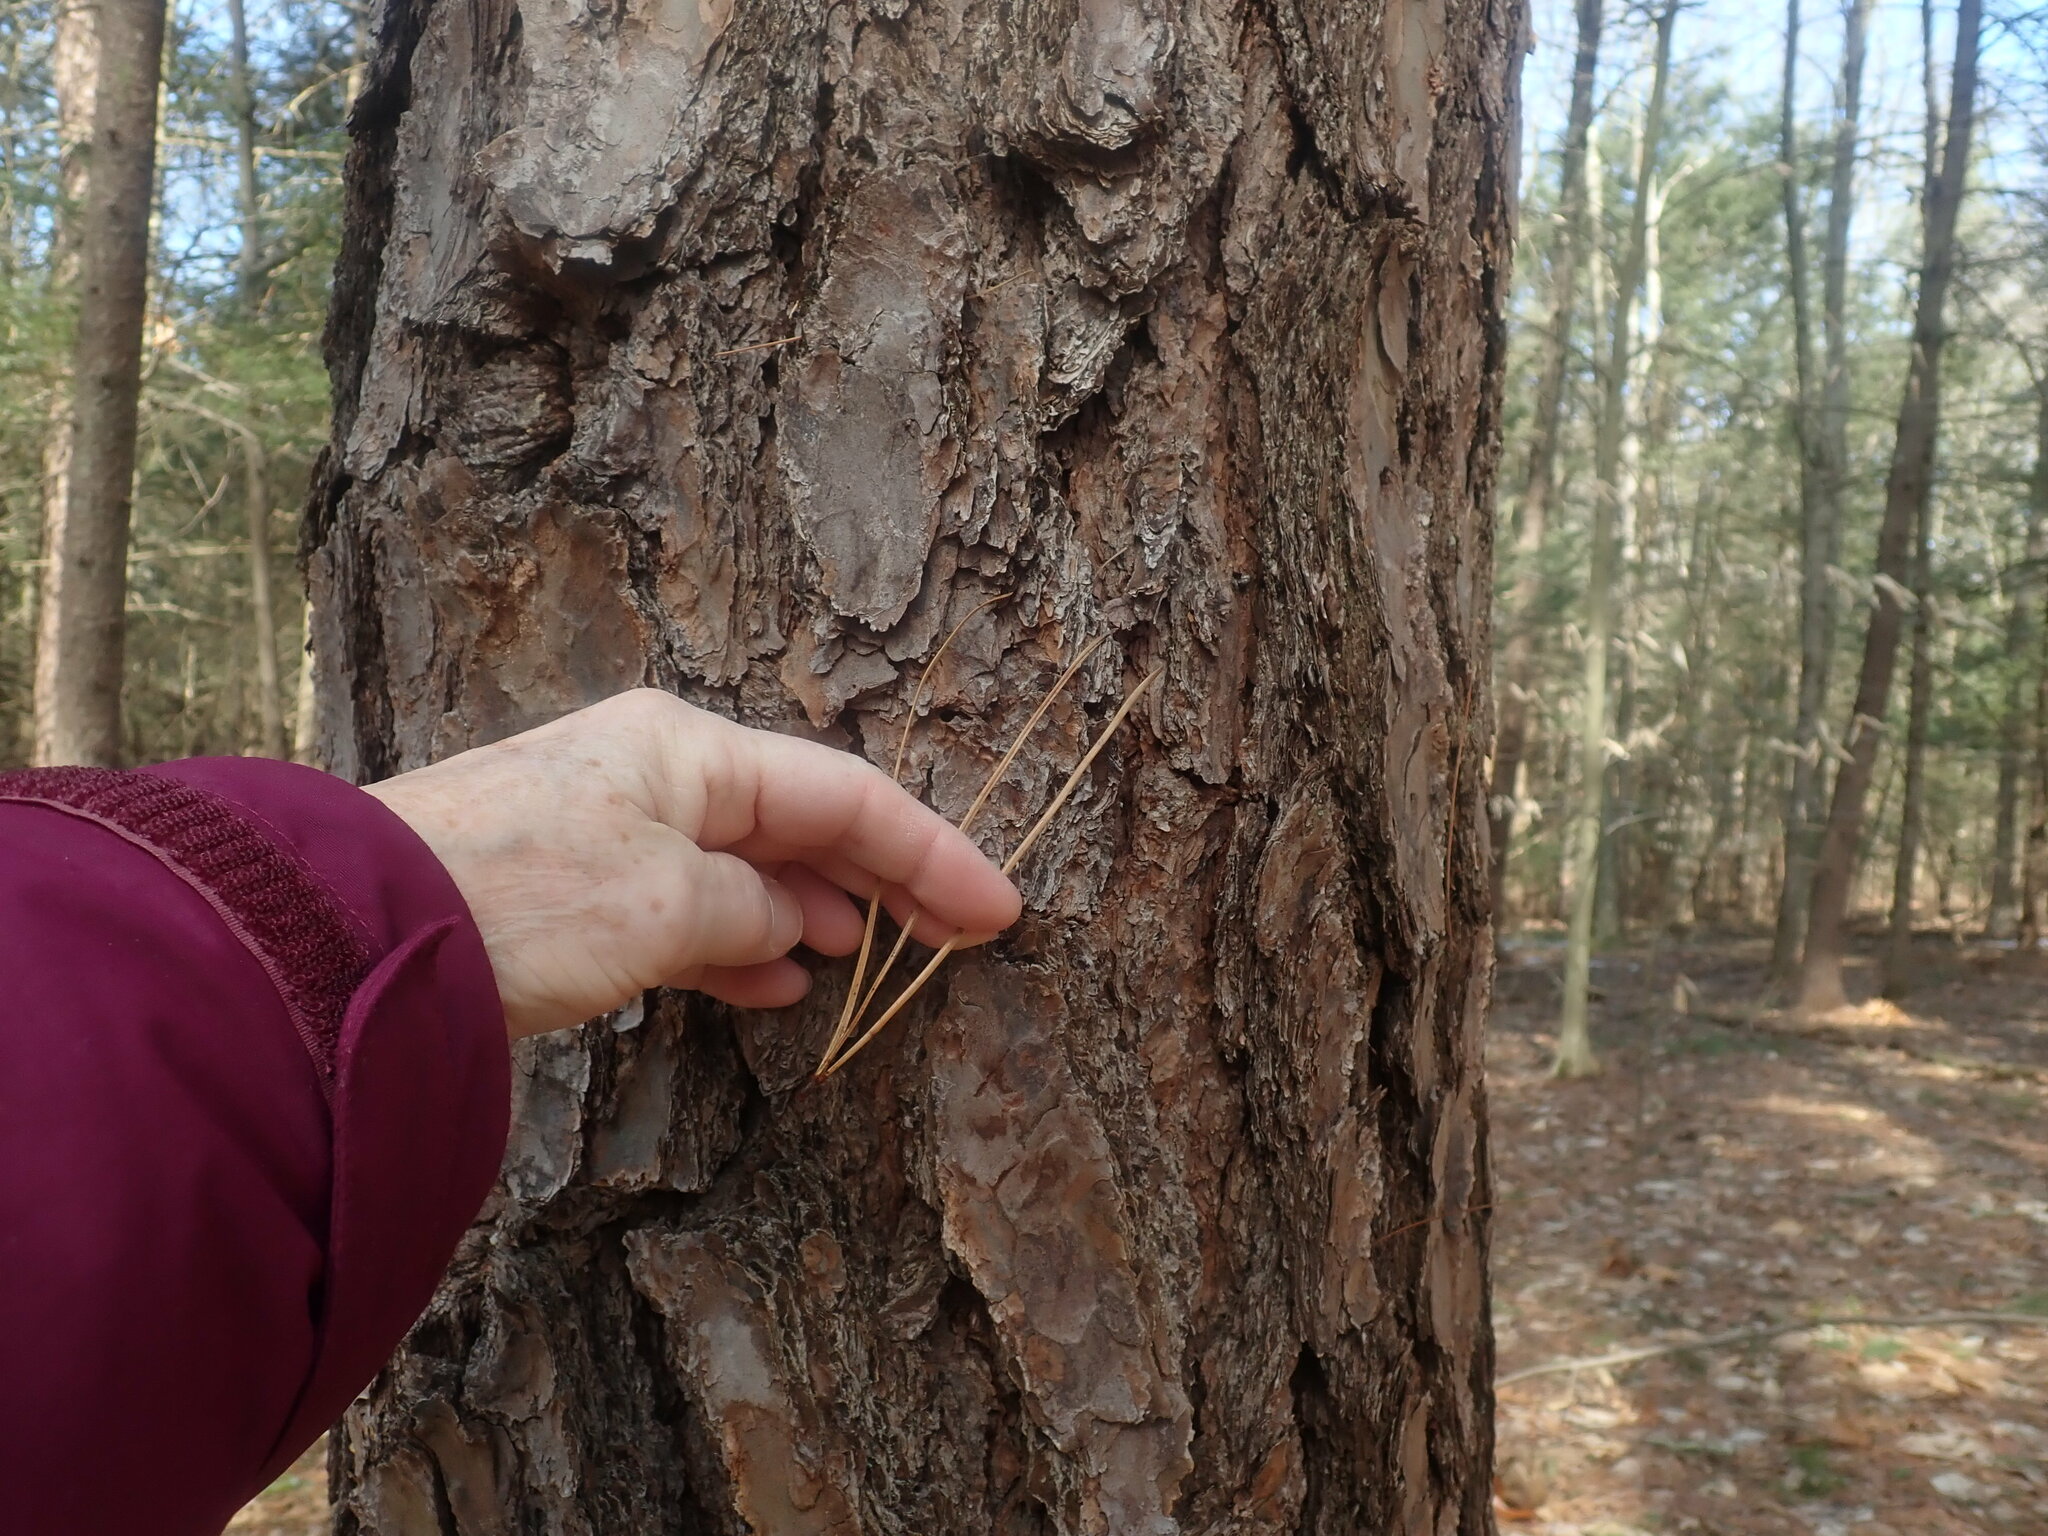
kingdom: Plantae
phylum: Tracheophyta
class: Pinopsida
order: Pinales
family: Pinaceae
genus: Pinus
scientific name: Pinus rigida
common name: Pitch pine
